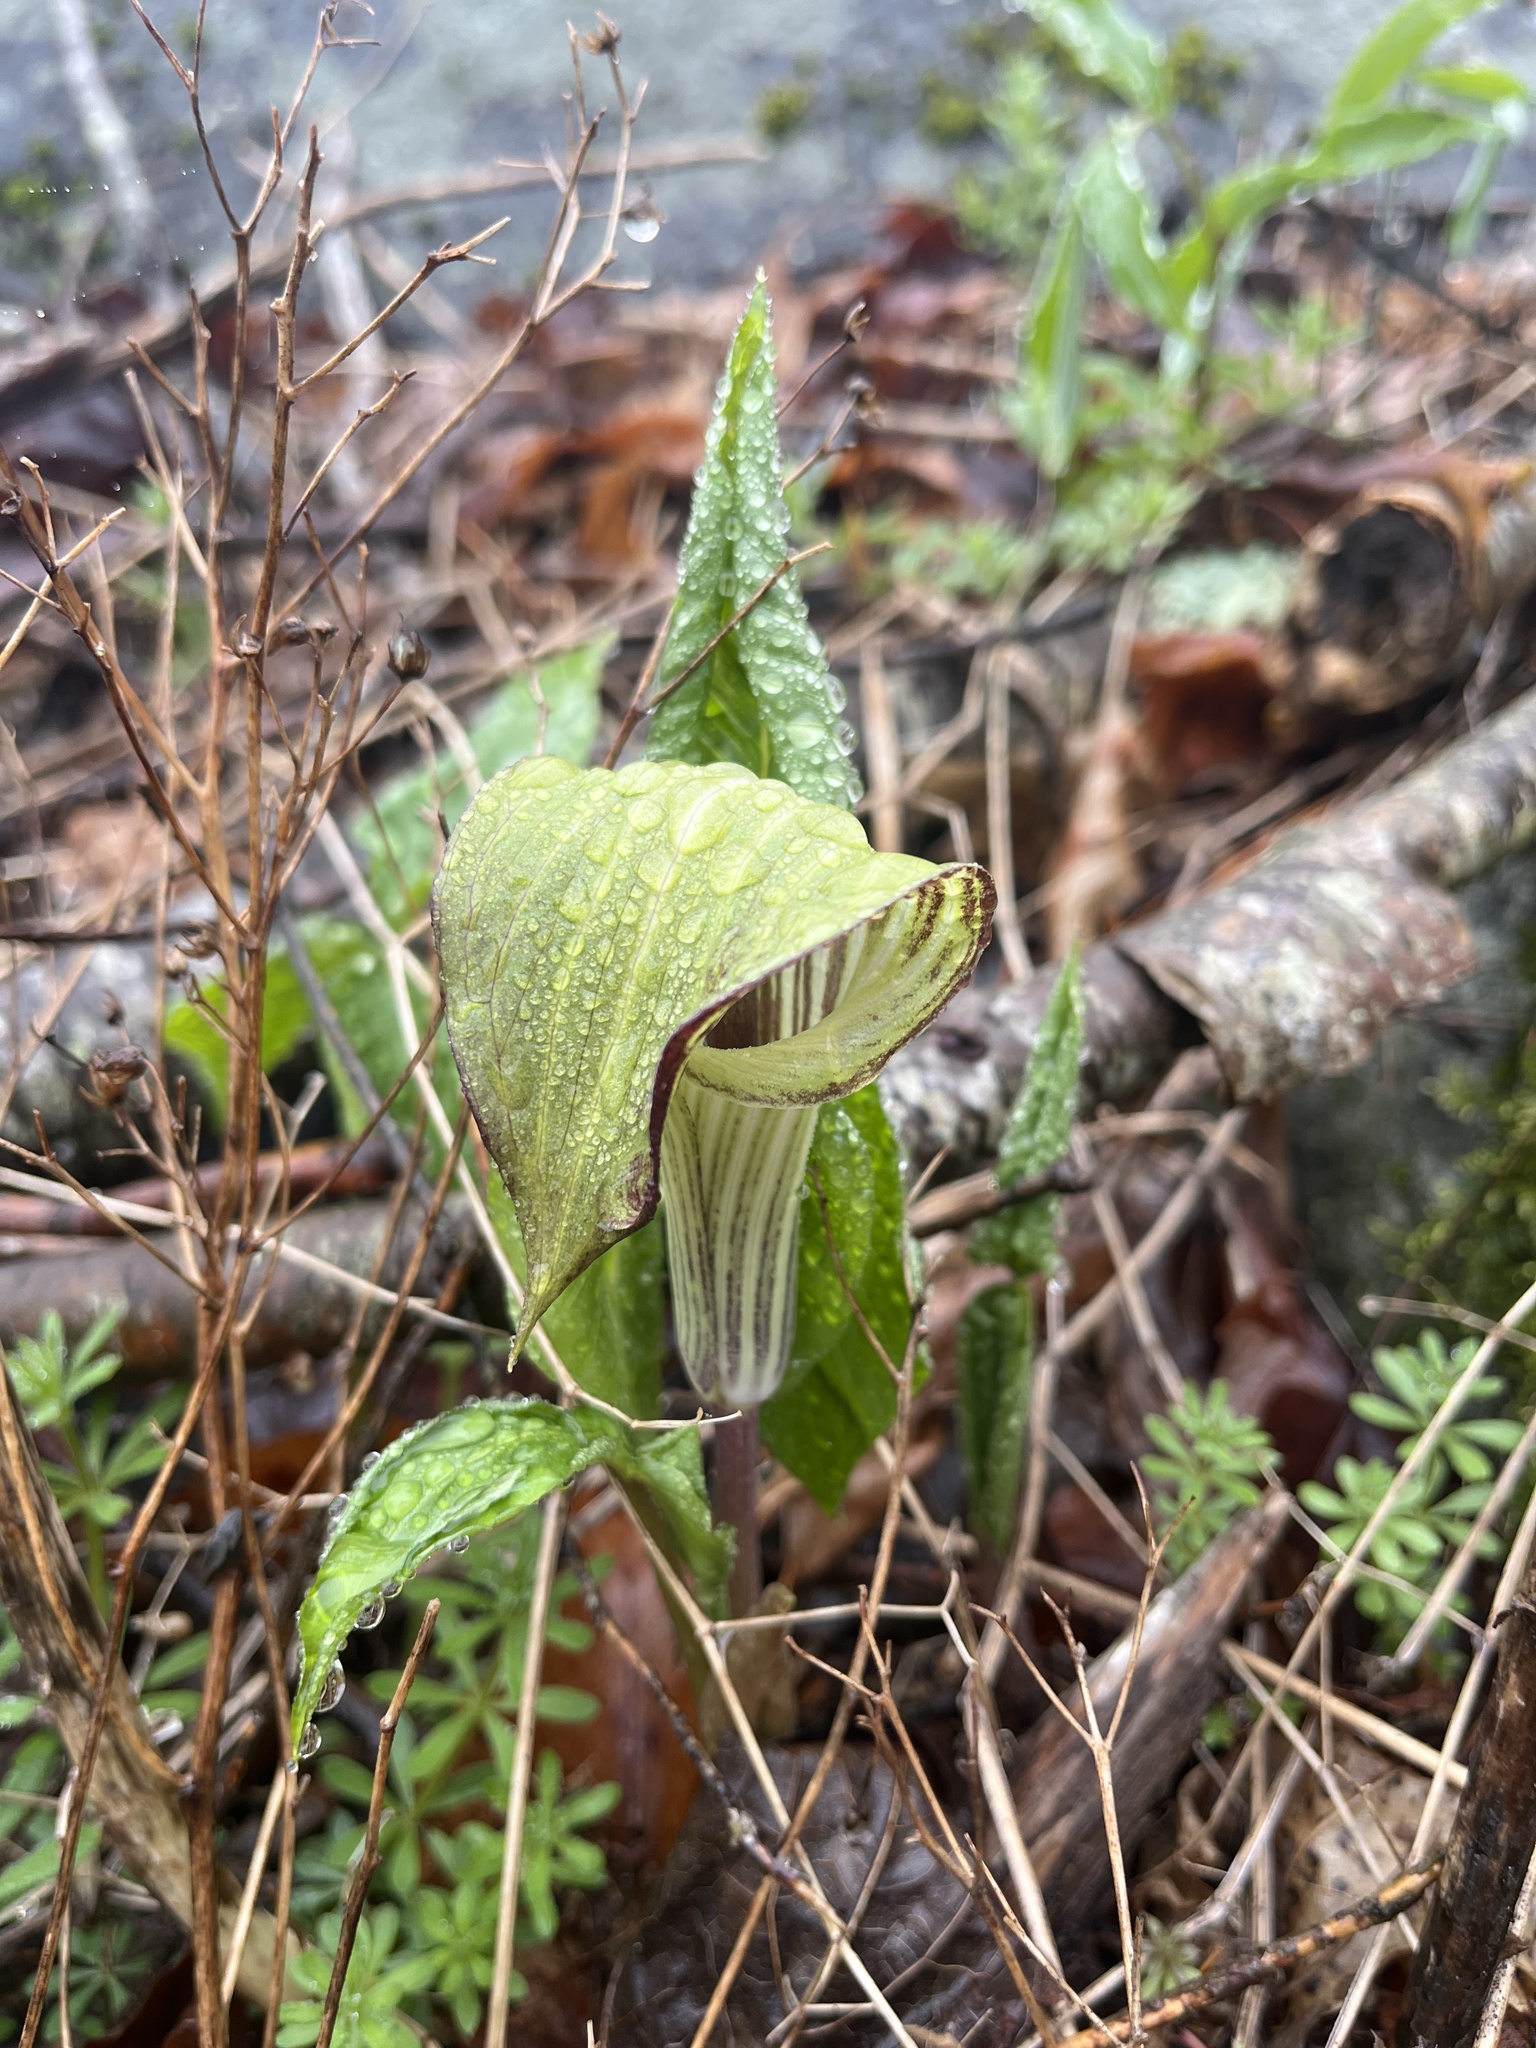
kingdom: Plantae
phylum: Tracheophyta
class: Liliopsida
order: Alismatales
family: Araceae
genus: Arisaema
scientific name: Arisaema triphyllum
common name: Jack-in-the-pulpit
